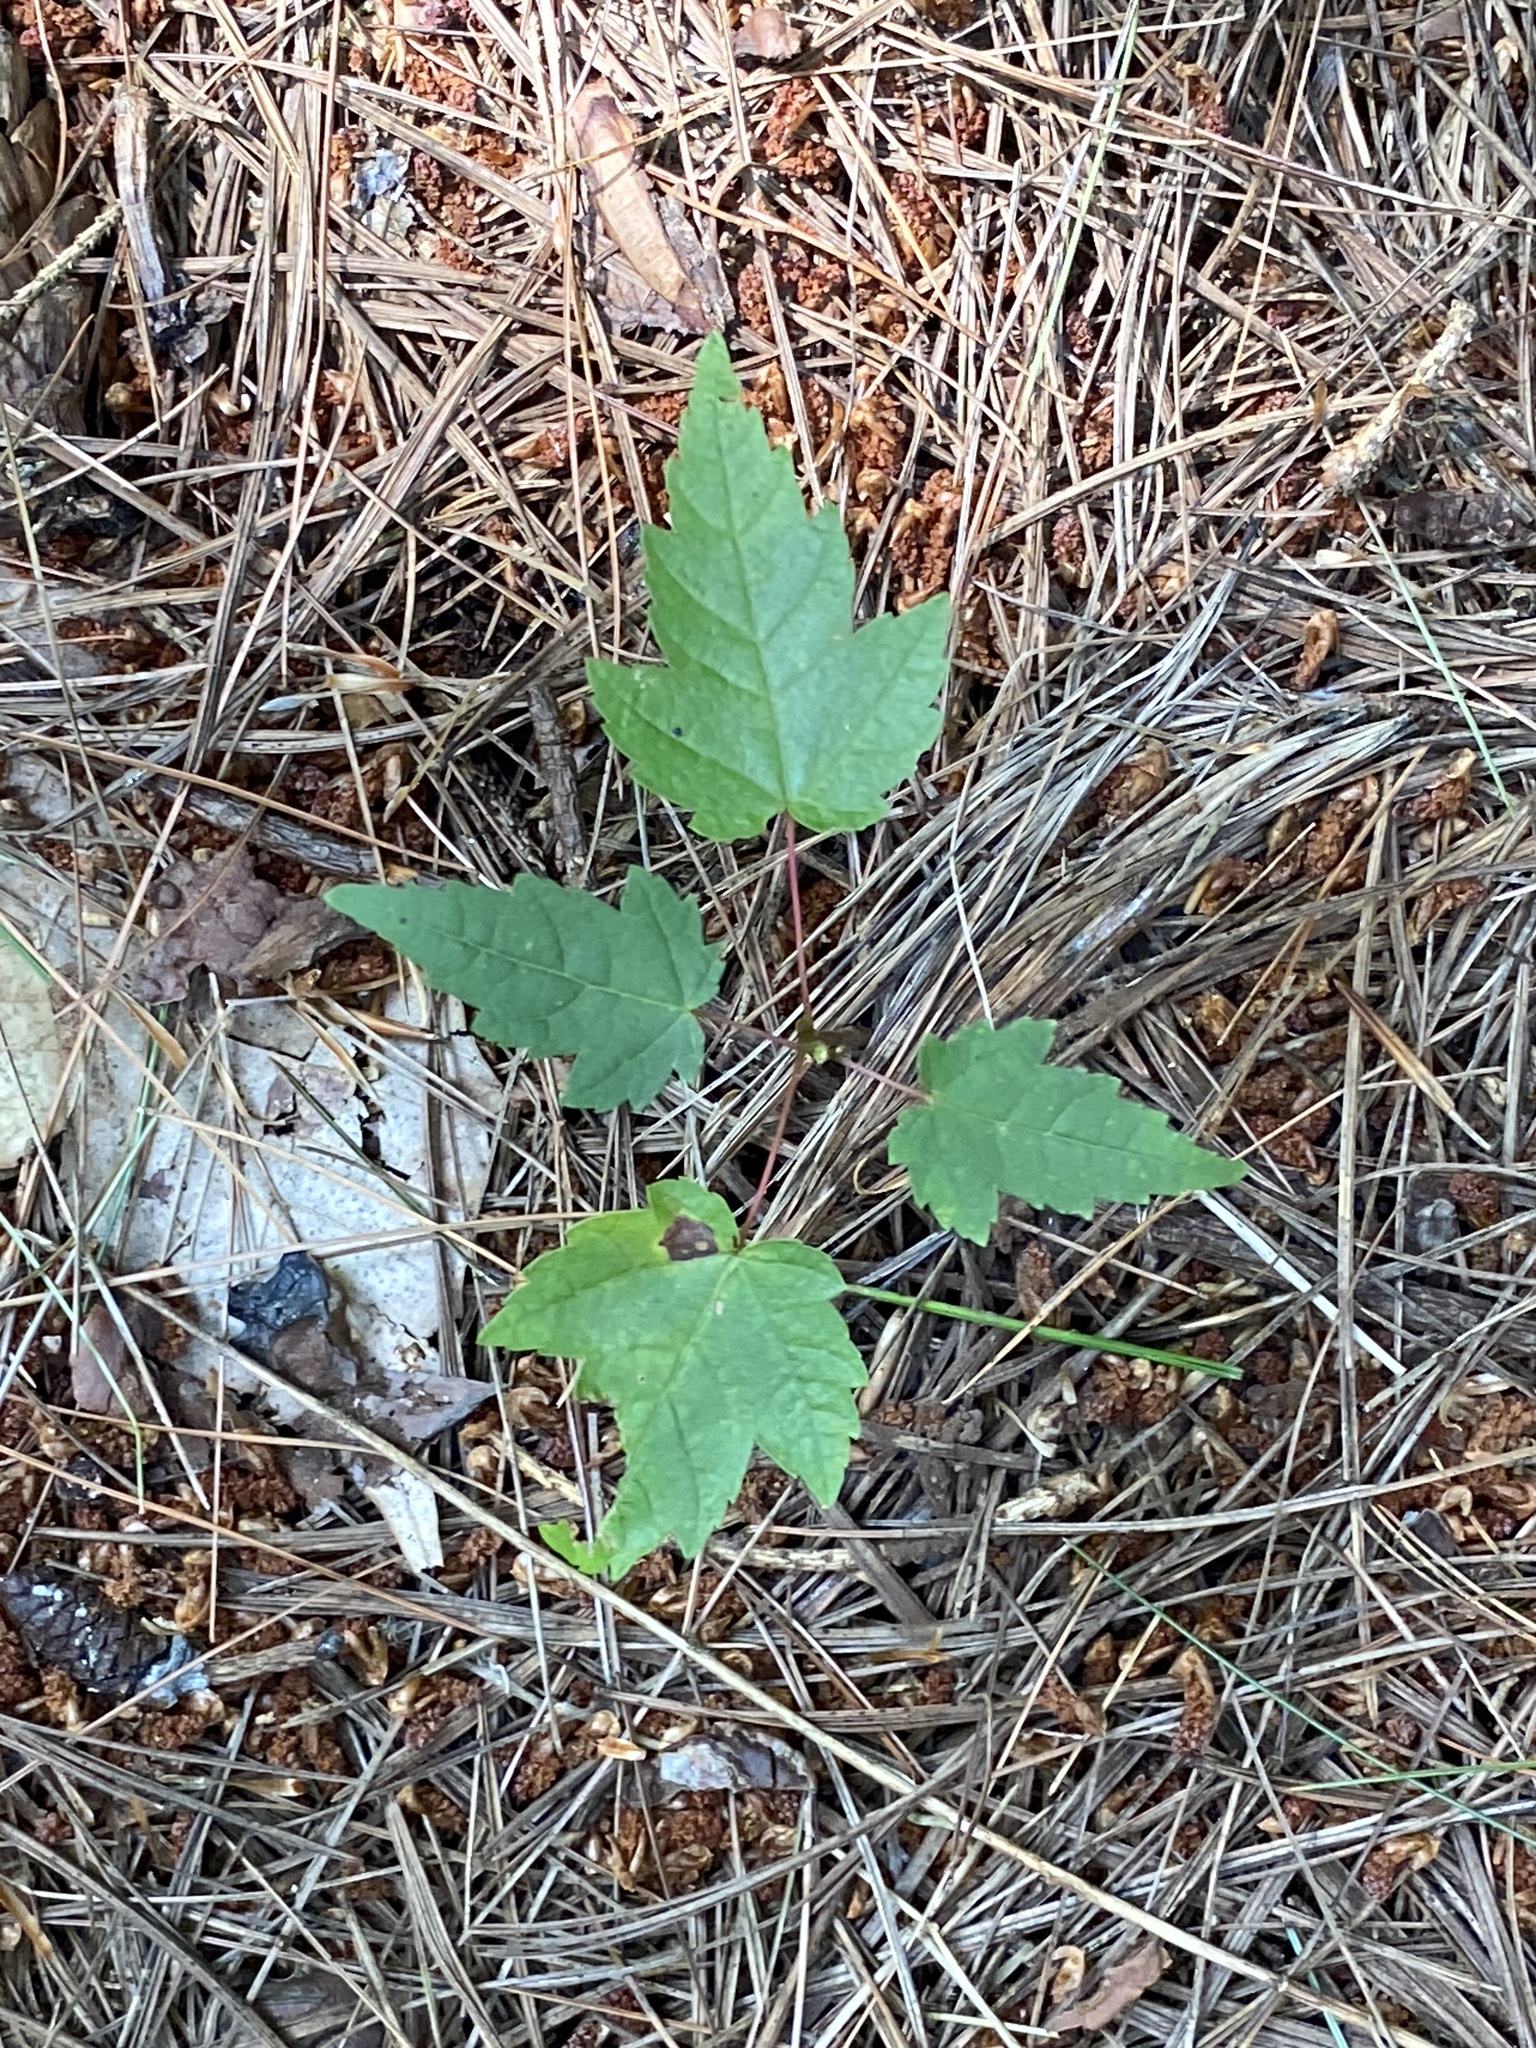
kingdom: Plantae
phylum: Tracheophyta
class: Magnoliopsida
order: Sapindales
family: Sapindaceae
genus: Acer
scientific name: Acer rubrum
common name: Red maple
